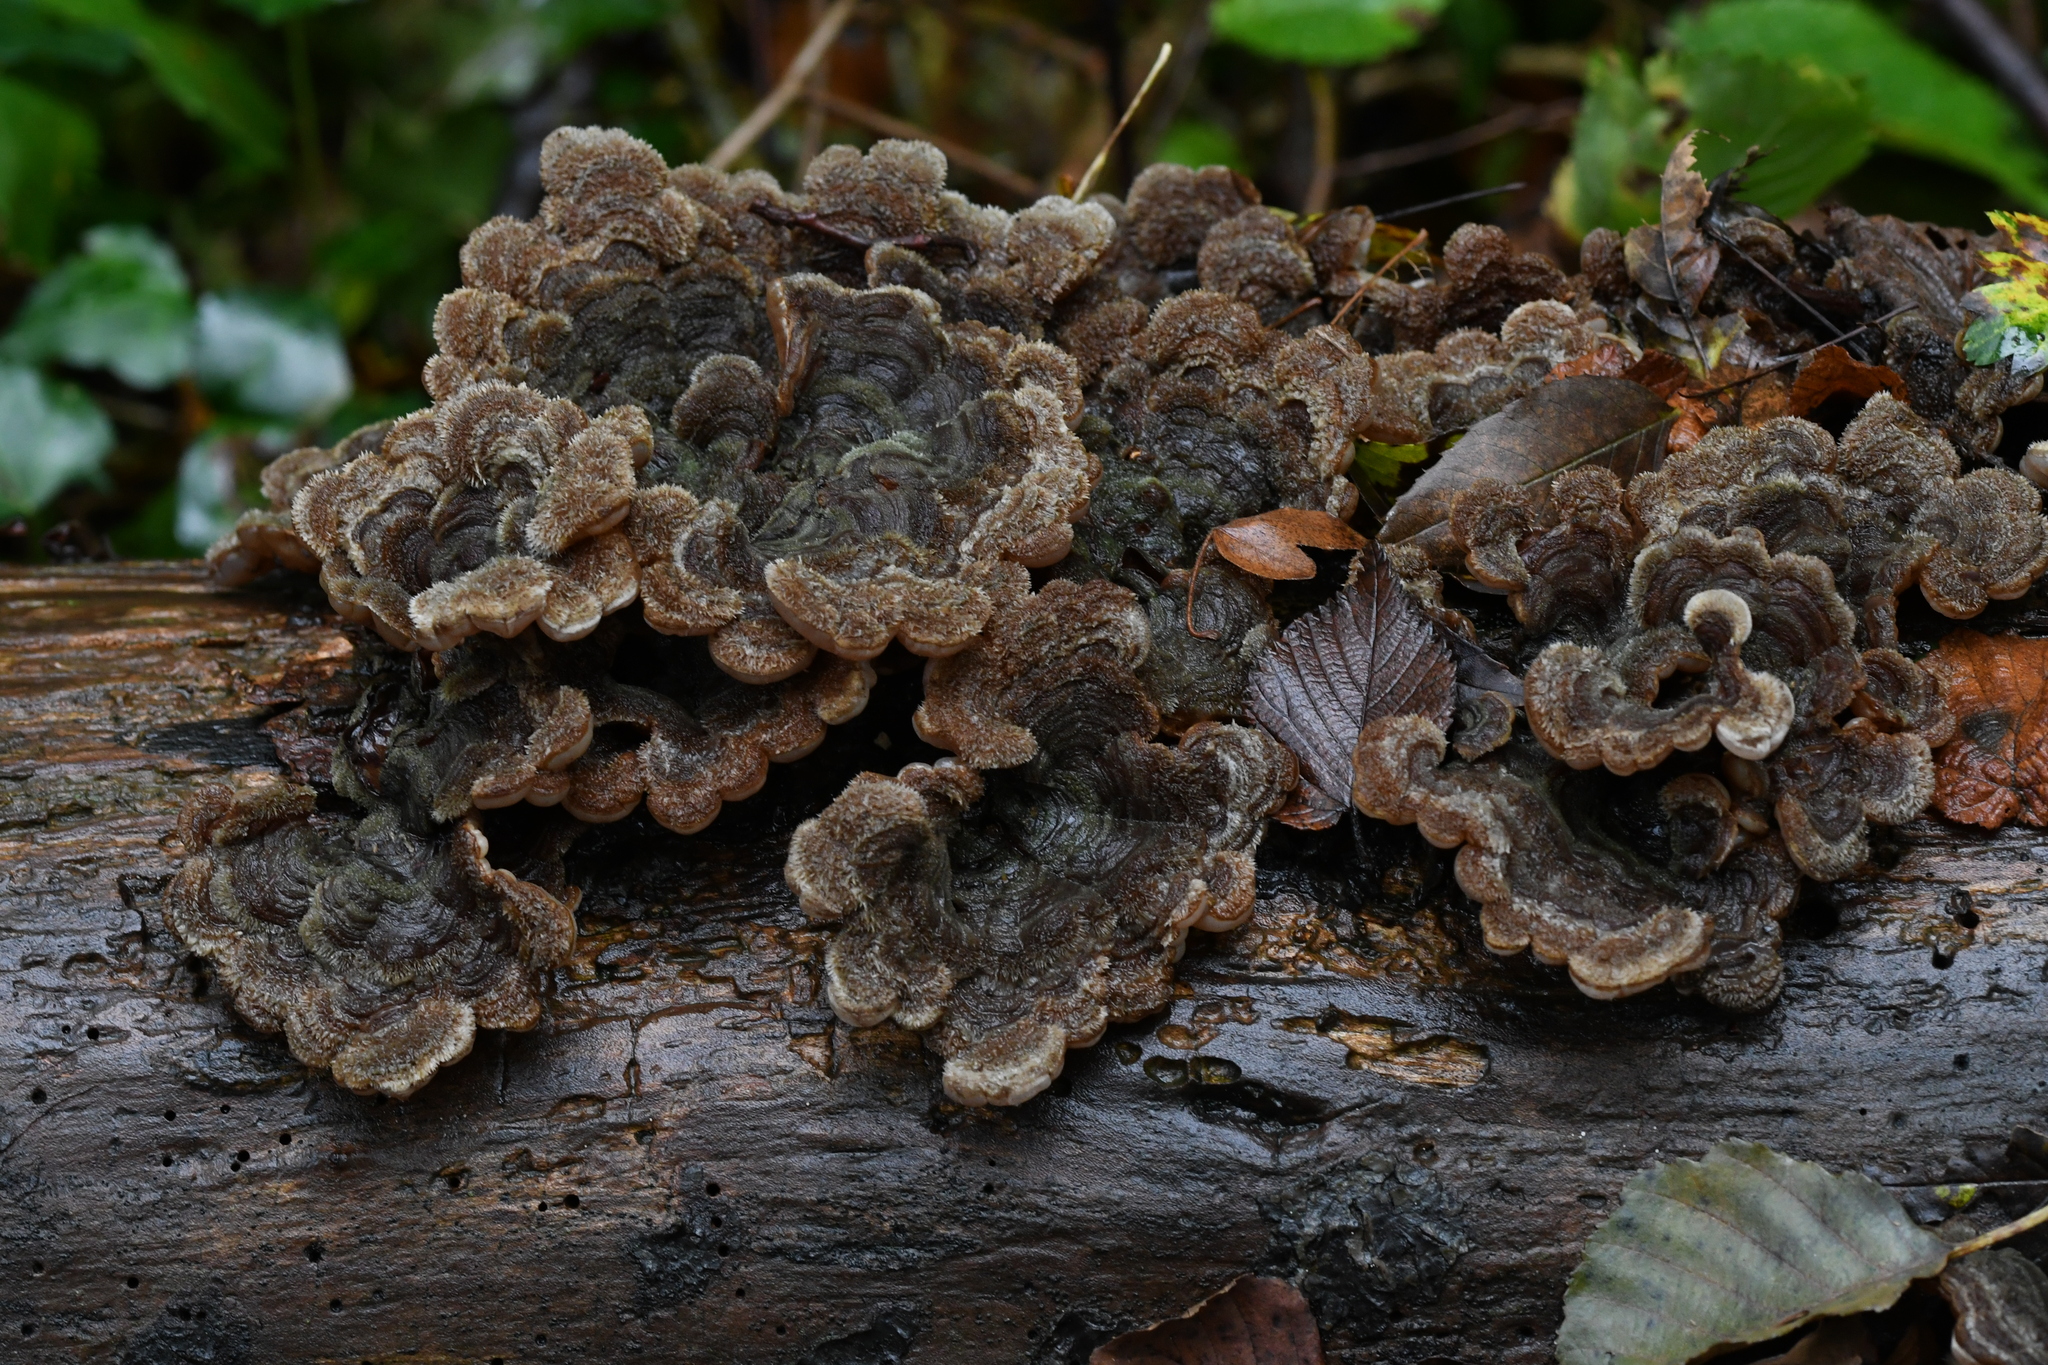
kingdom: Fungi
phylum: Basidiomycota
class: Agaricomycetes
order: Auriculariales
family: Auriculariaceae
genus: Auricularia
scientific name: Auricularia mesenterica
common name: Tripe fungus
